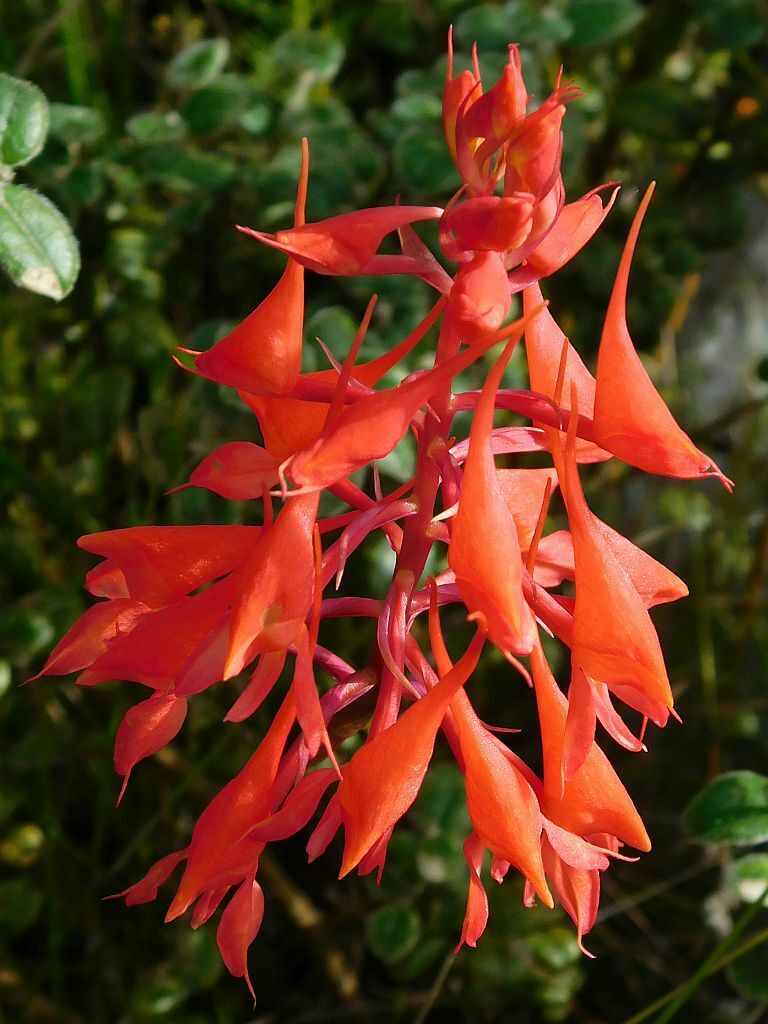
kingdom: Plantae
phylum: Tracheophyta
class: Liliopsida
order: Asparagales
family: Orchidaceae
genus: Disa
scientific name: Disa ferruginea
